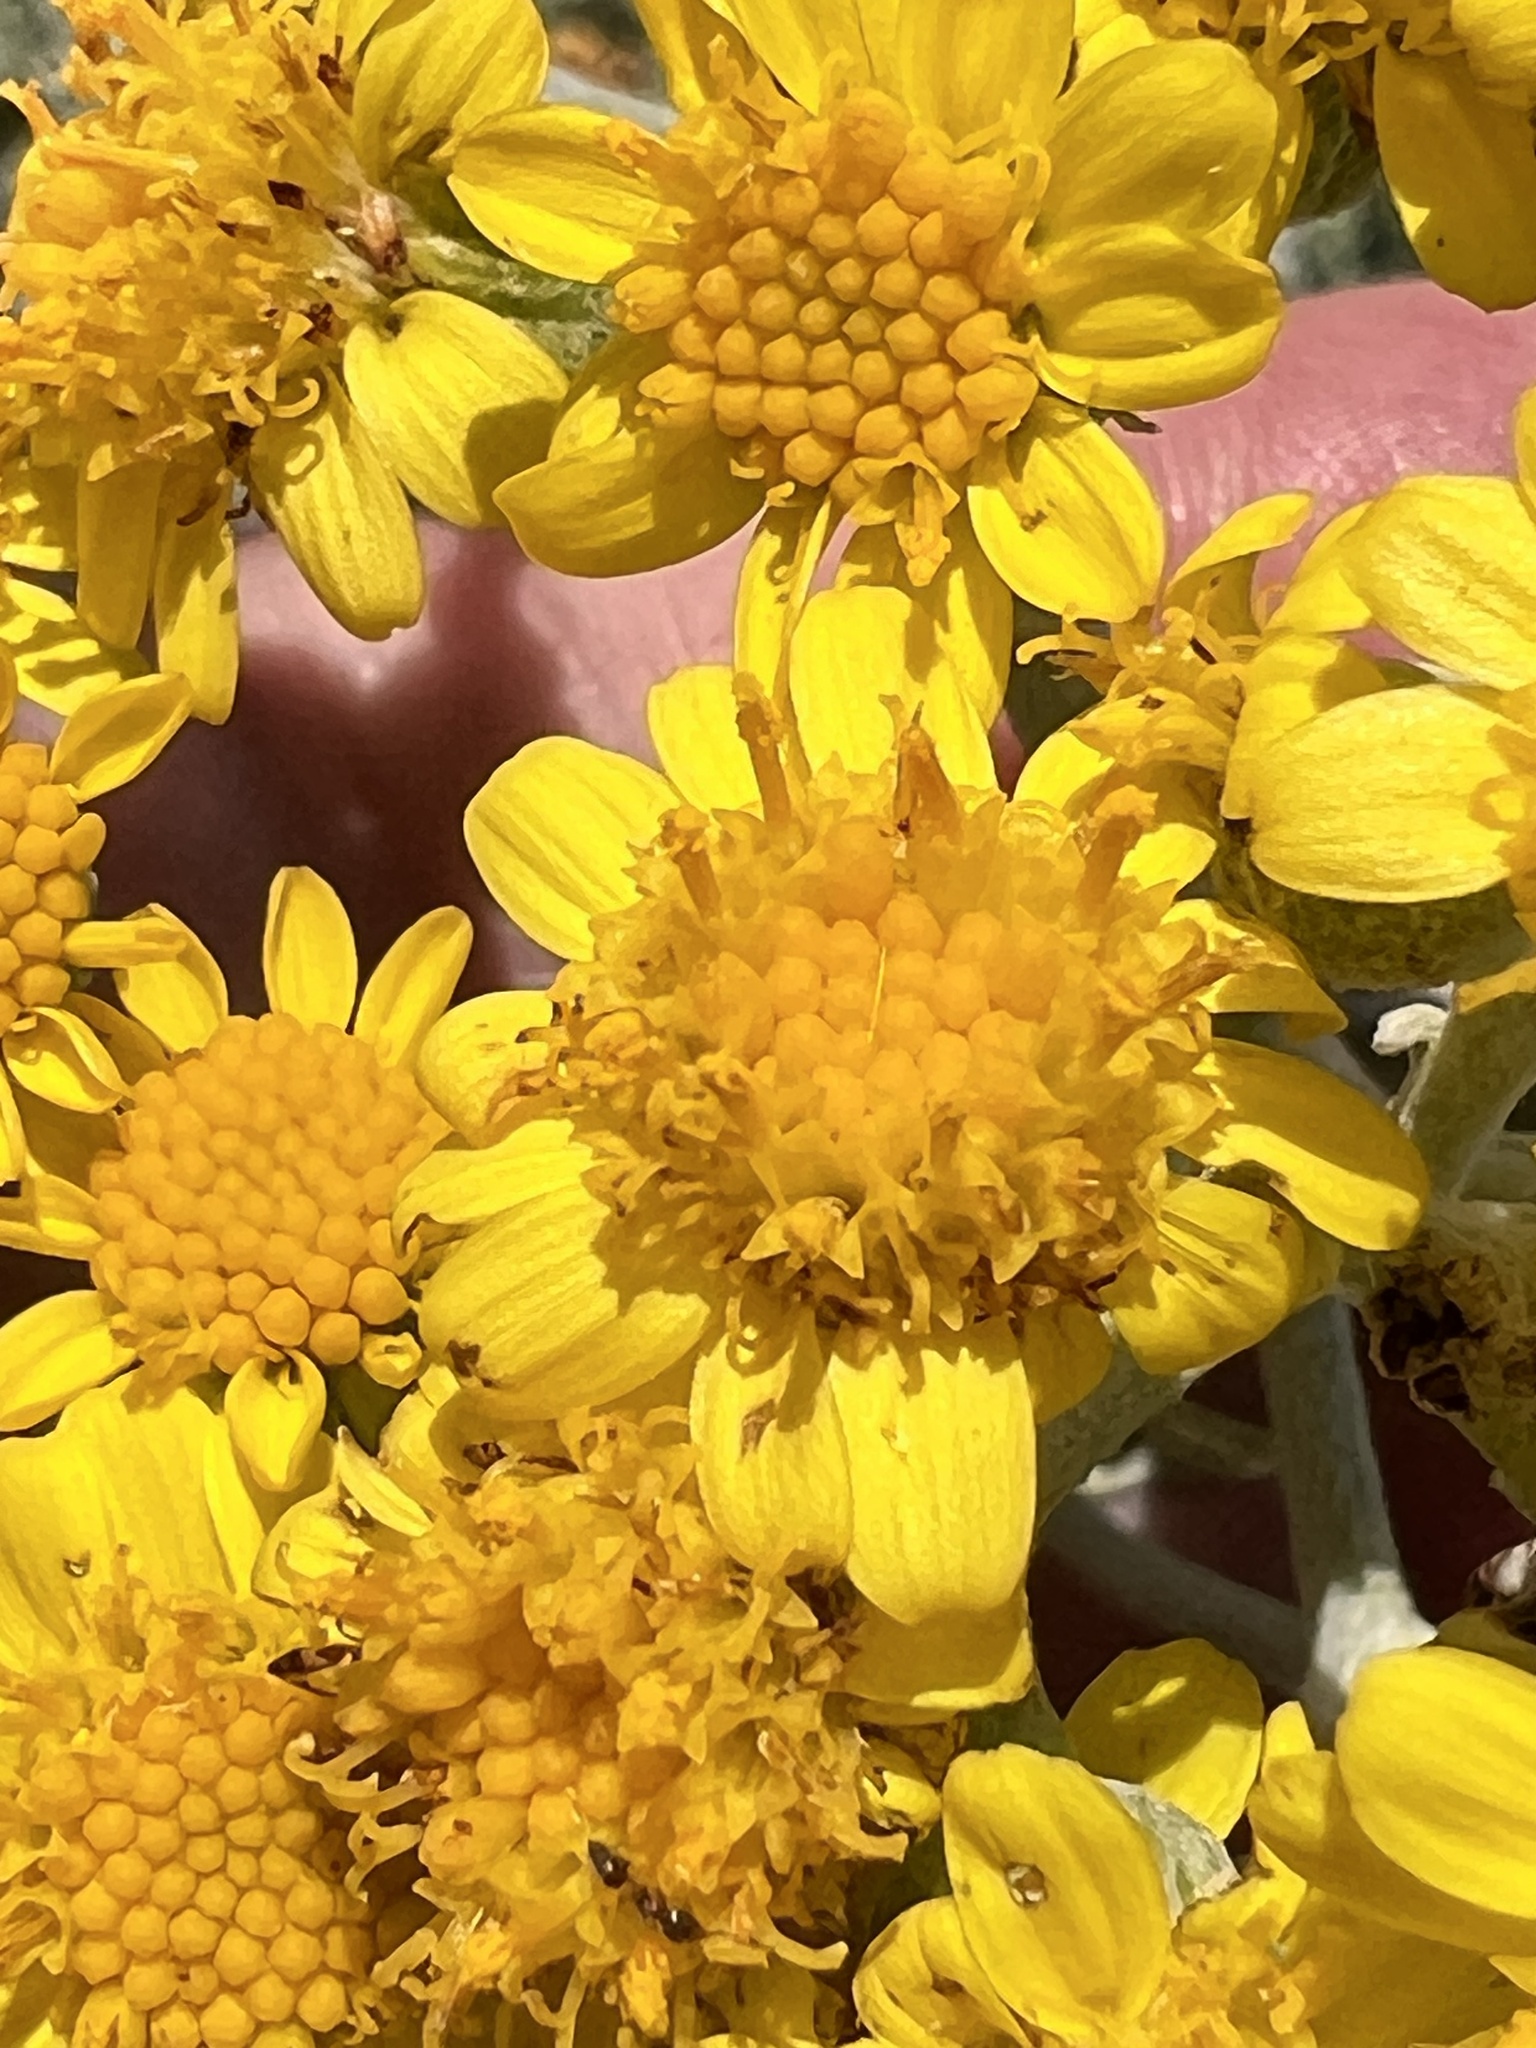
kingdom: Plantae
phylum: Tracheophyta
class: Magnoliopsida
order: Asterales
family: Asteraceae
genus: Jacobaea
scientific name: Jacobaea maritima
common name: Silver ragwort
